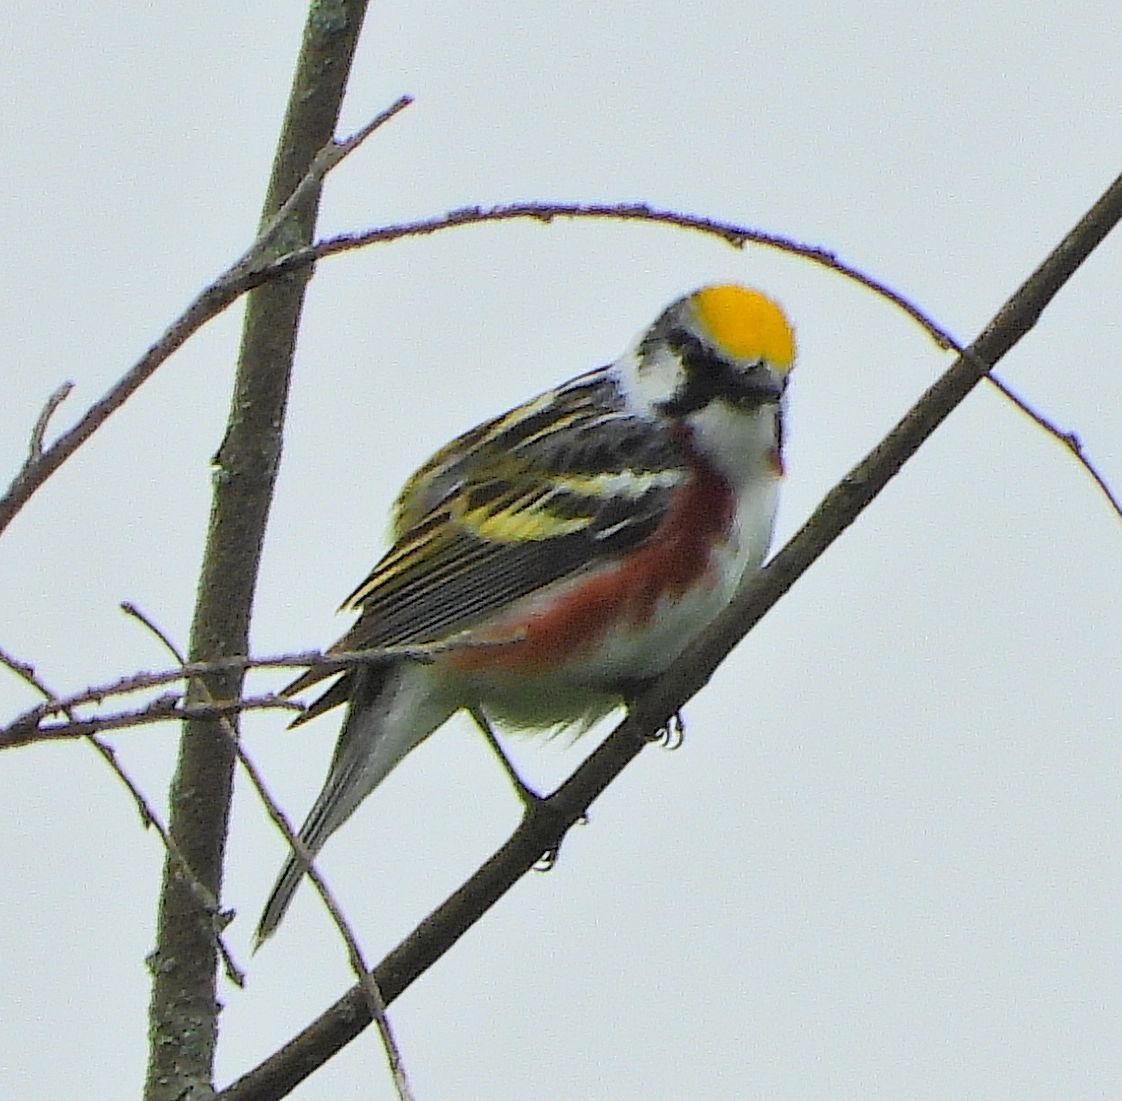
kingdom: Animalia
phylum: Chordata
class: Aves
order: Passeriformes
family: Parulidae
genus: Setophaga
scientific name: Setophaga pensylvanica
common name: Chestnut-sided warbler
